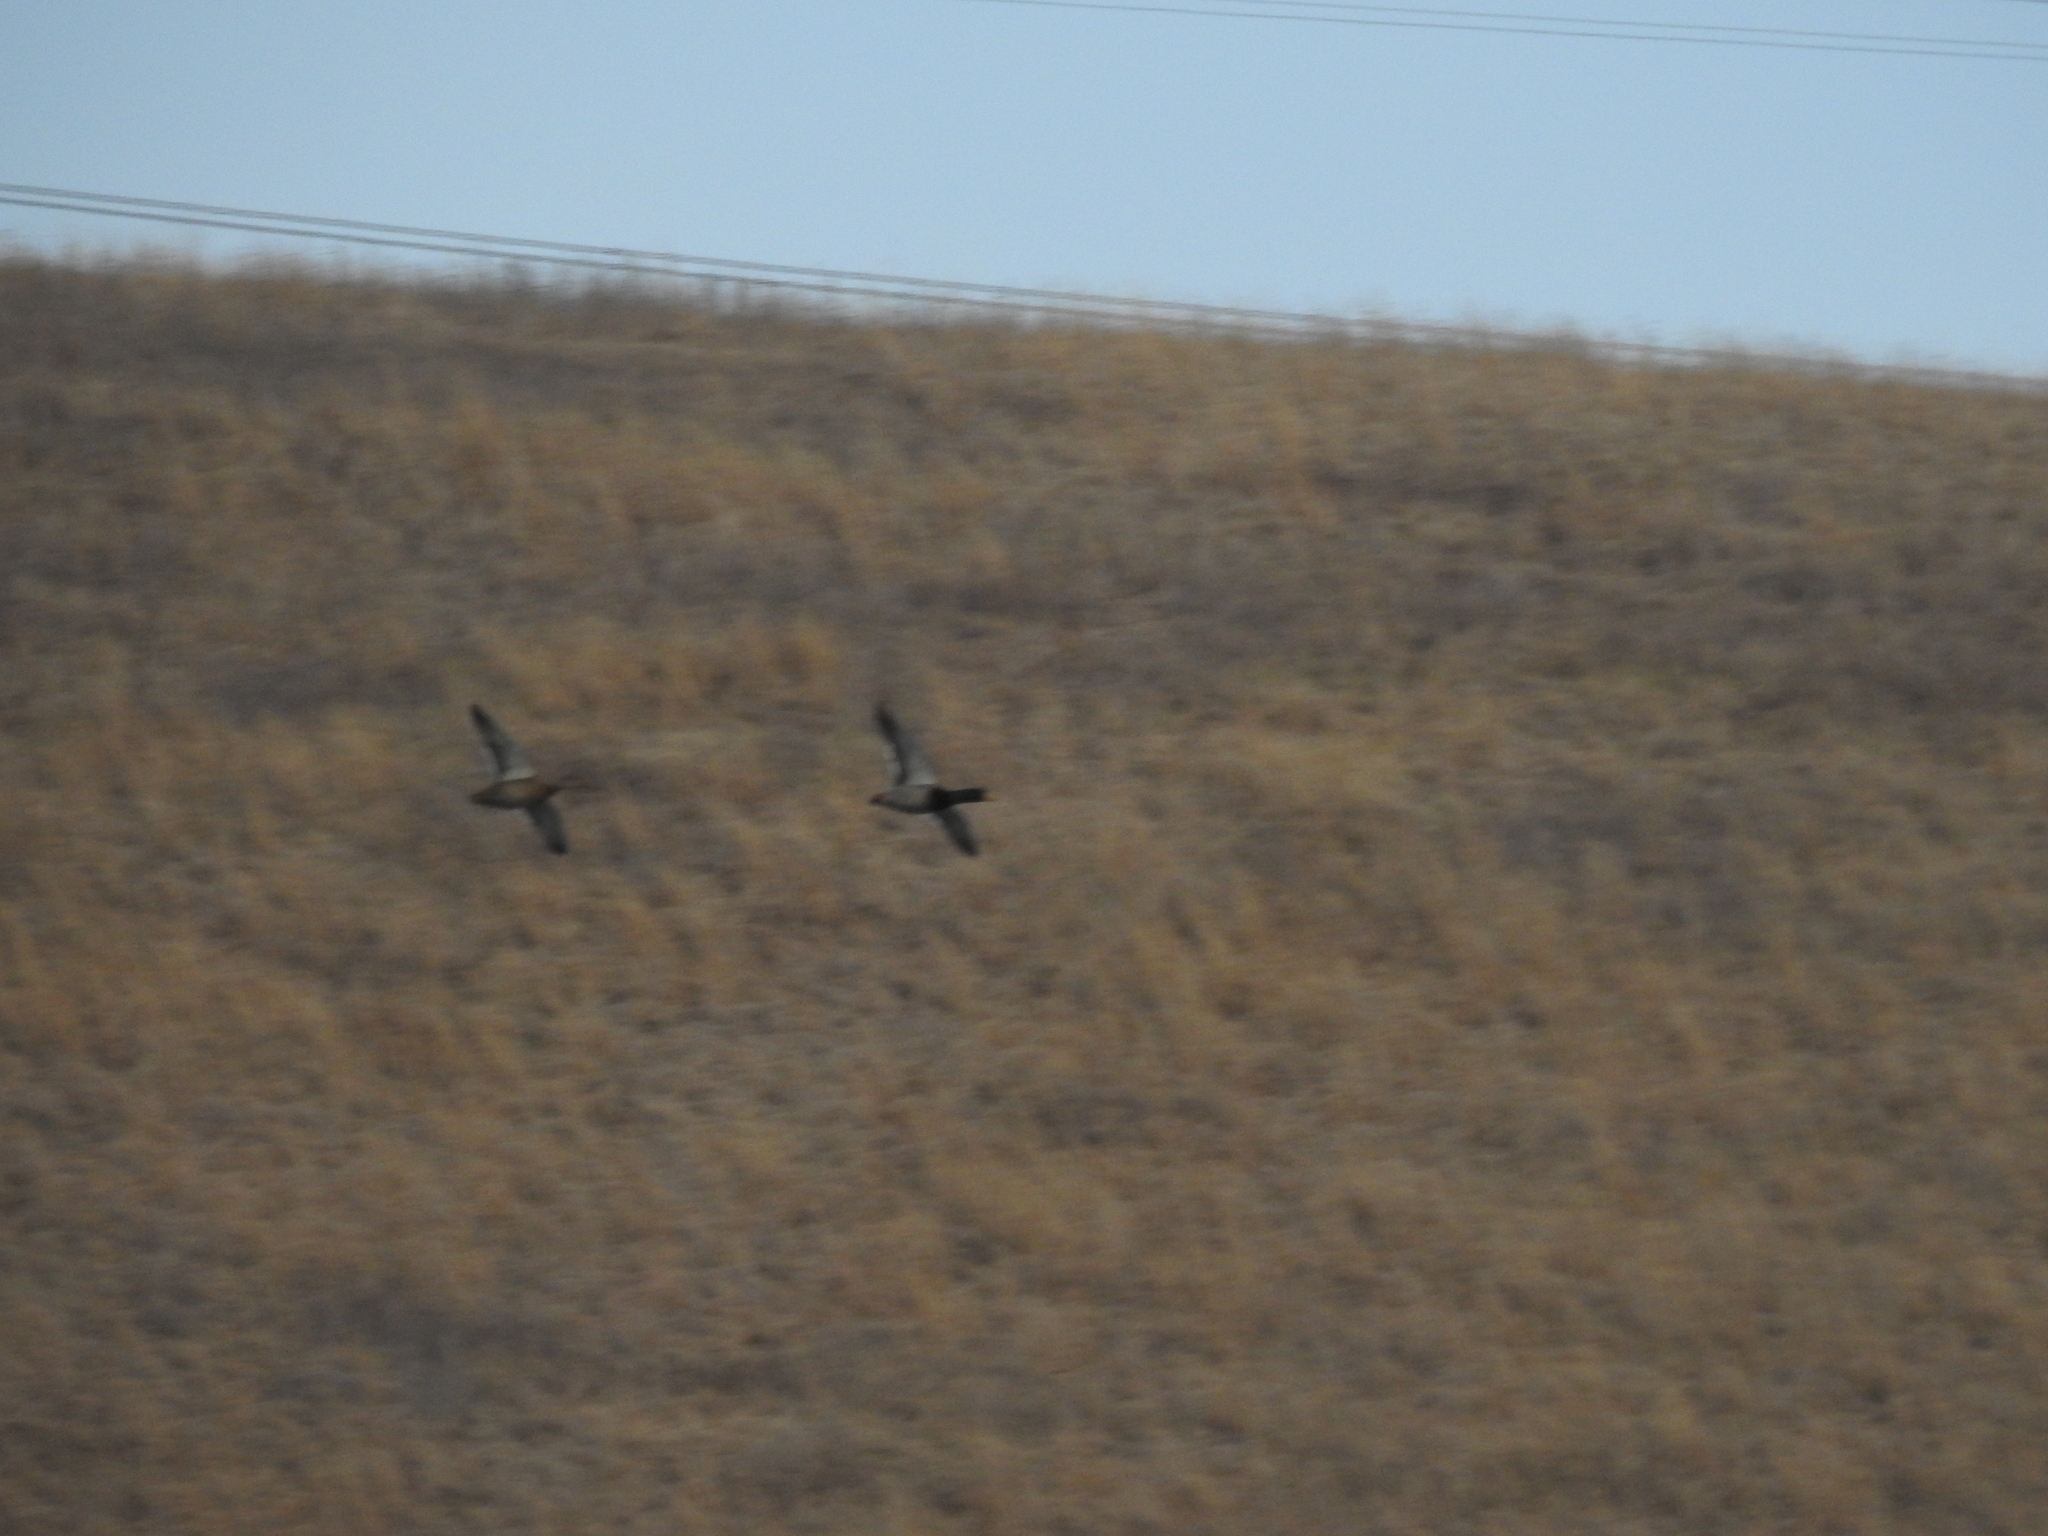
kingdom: Animalia
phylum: Chordata
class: Aves
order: Anseriformes
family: Anatidae
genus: Anas
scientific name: Anas platyrhynchos
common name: Mallard
